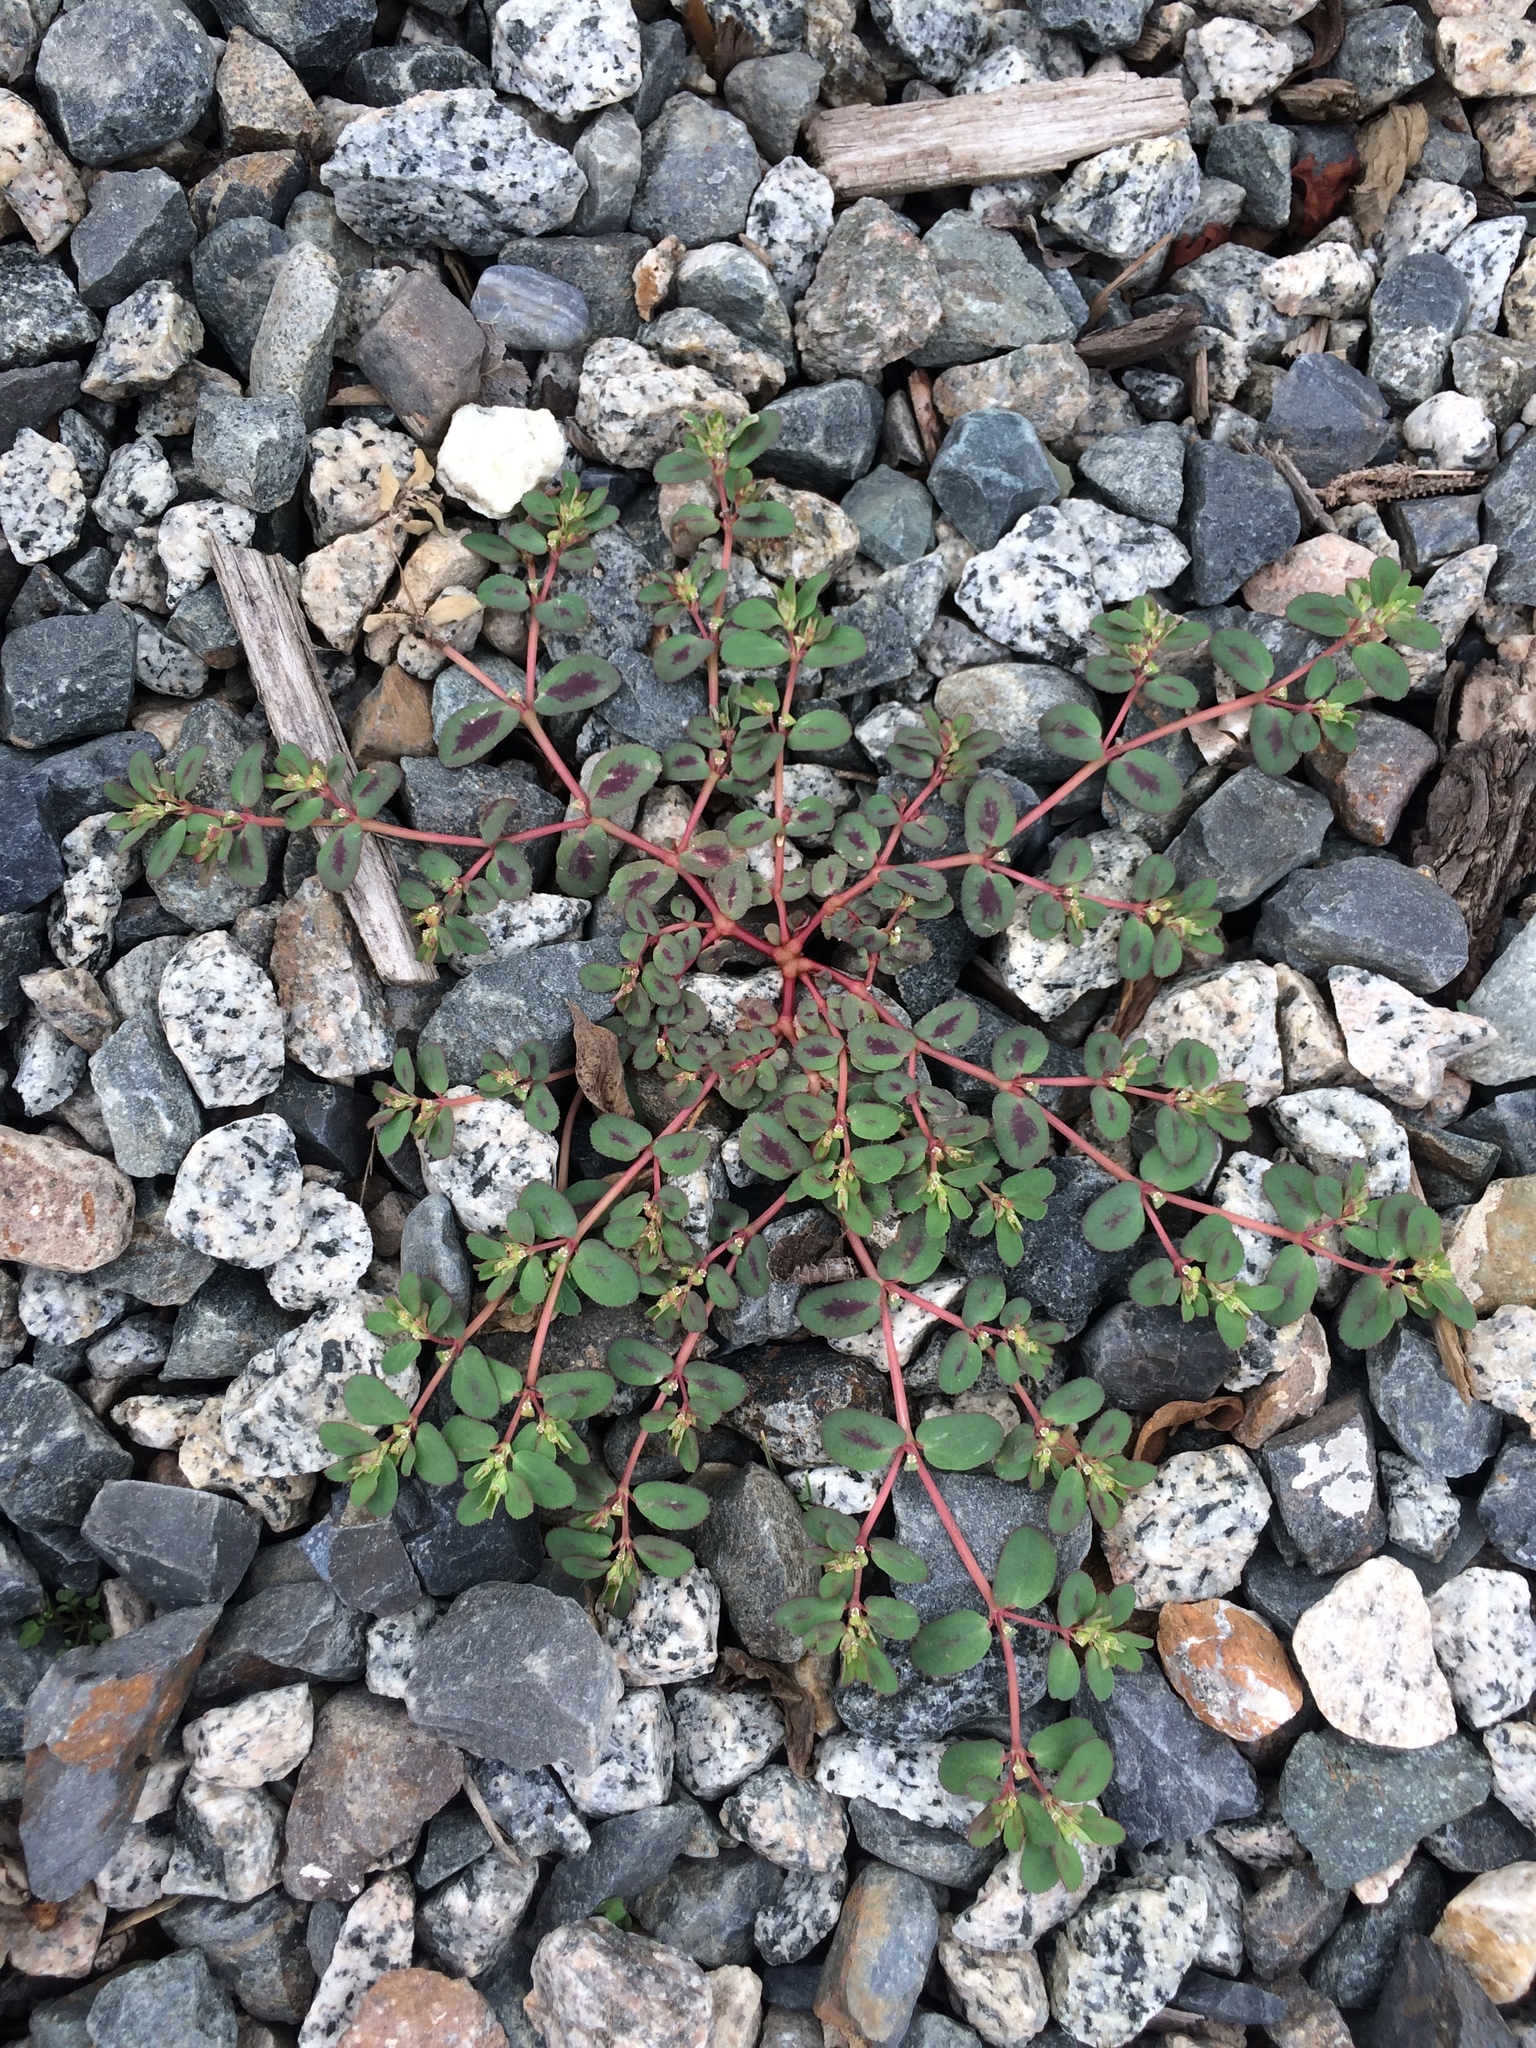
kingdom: Plantae
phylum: Tracheophyta
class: Magnoliopsida
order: Malpighiales
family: Euphorbiaceae
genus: Euphorbia
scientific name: Euphorbia serpillifolia
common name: Thyme-leaf spurge
